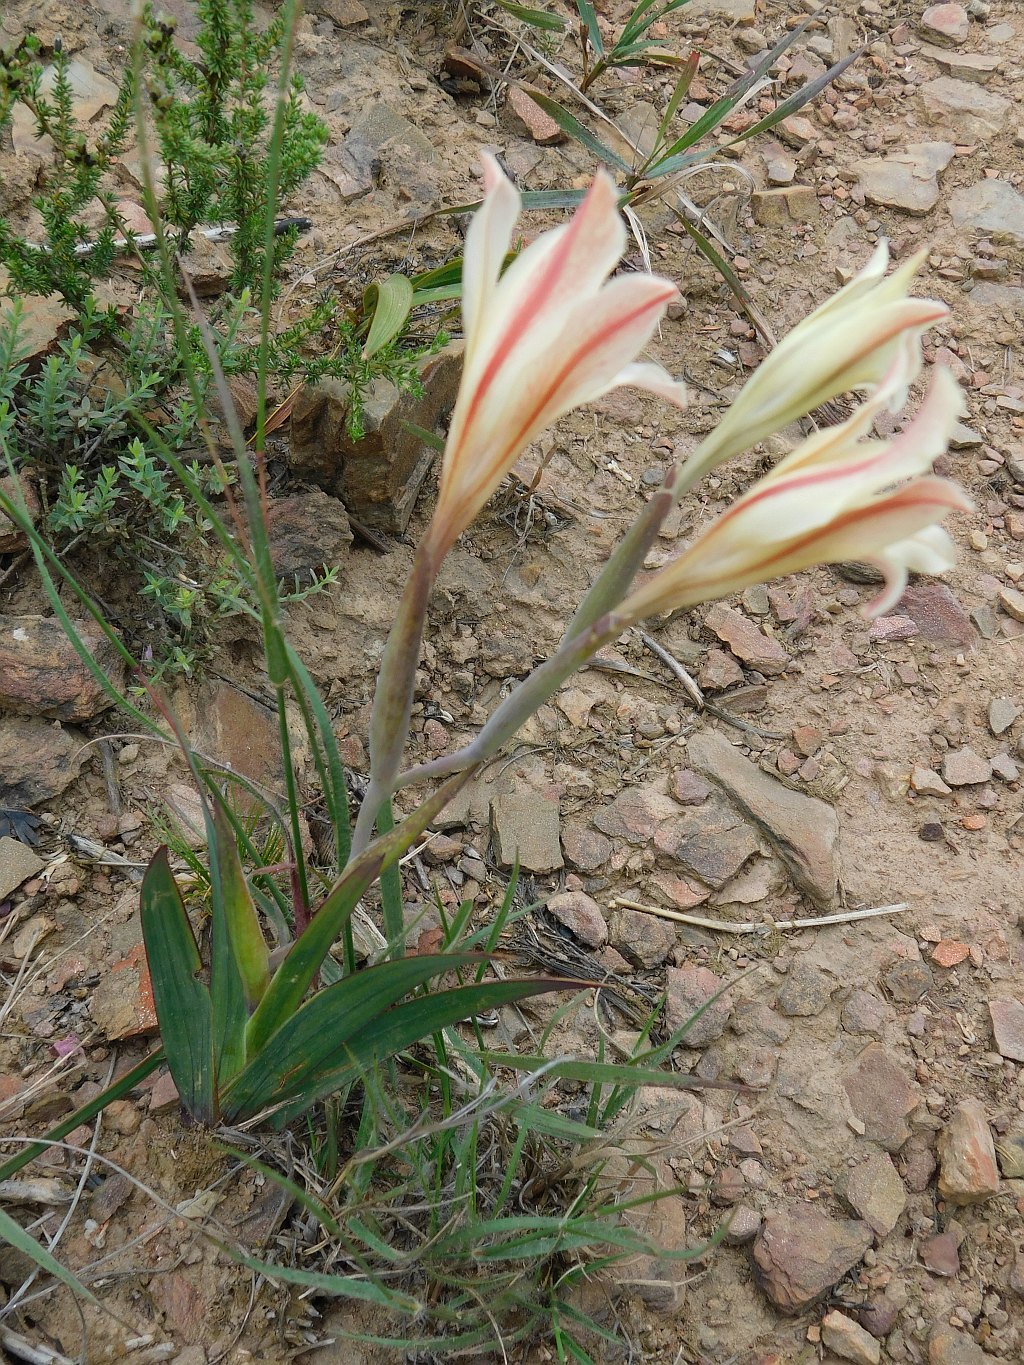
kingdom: Plantae
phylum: Tracheophyta
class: Liliopsida
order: Asparagales
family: Iridaceae
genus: Gladiolus
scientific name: Gladiolus floribundus
